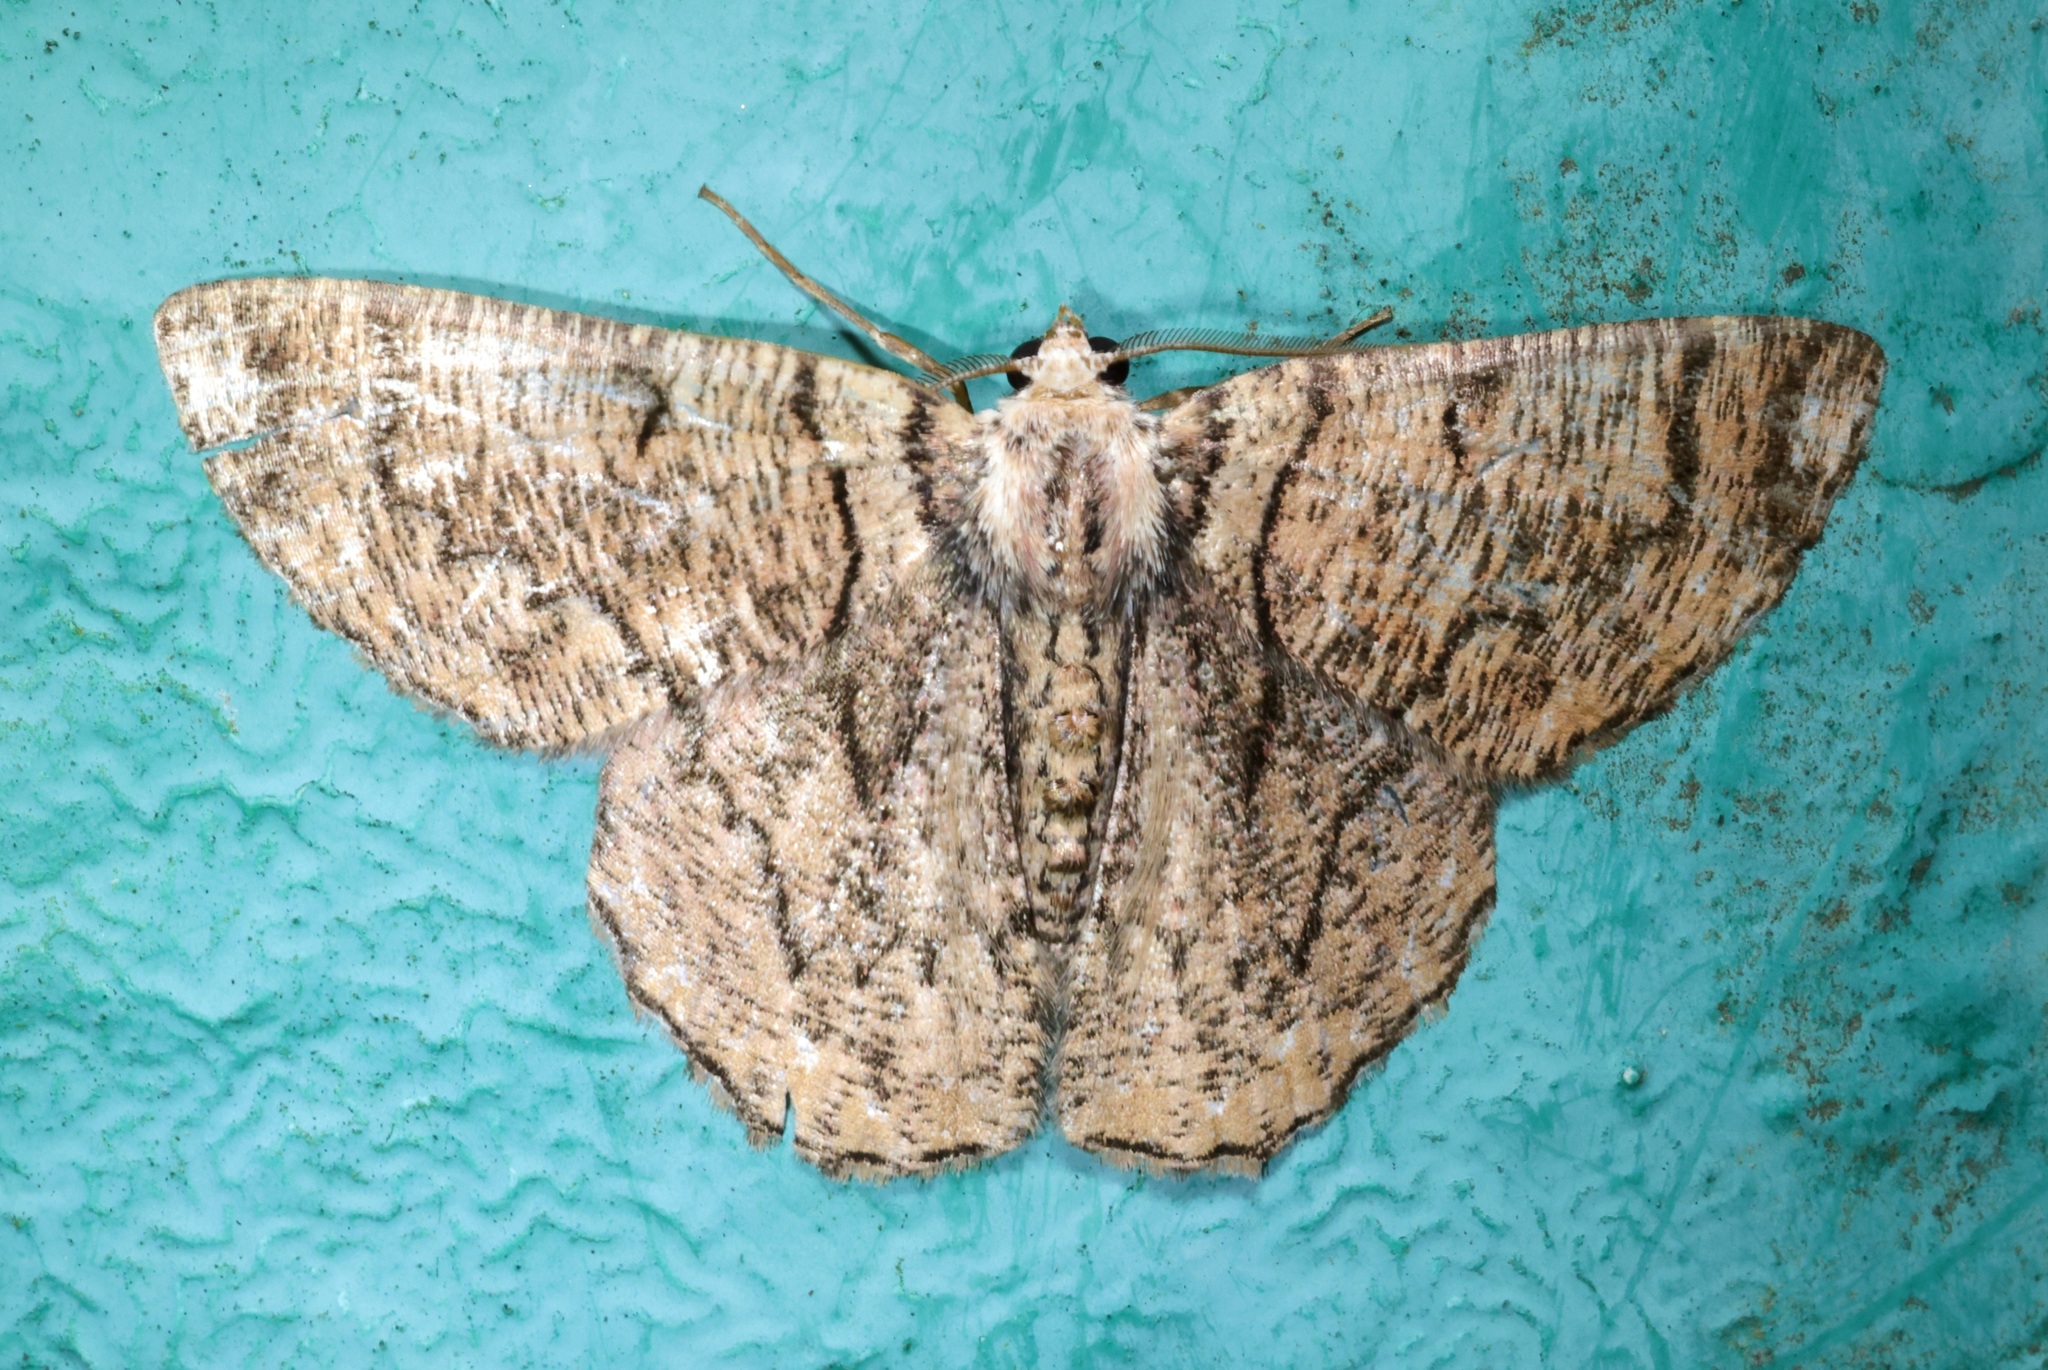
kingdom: Animalia
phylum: Arthropoda
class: Insecta
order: Lepidoptera
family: Geometridae
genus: Lophophelma
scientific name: Lophophelma calaurops
